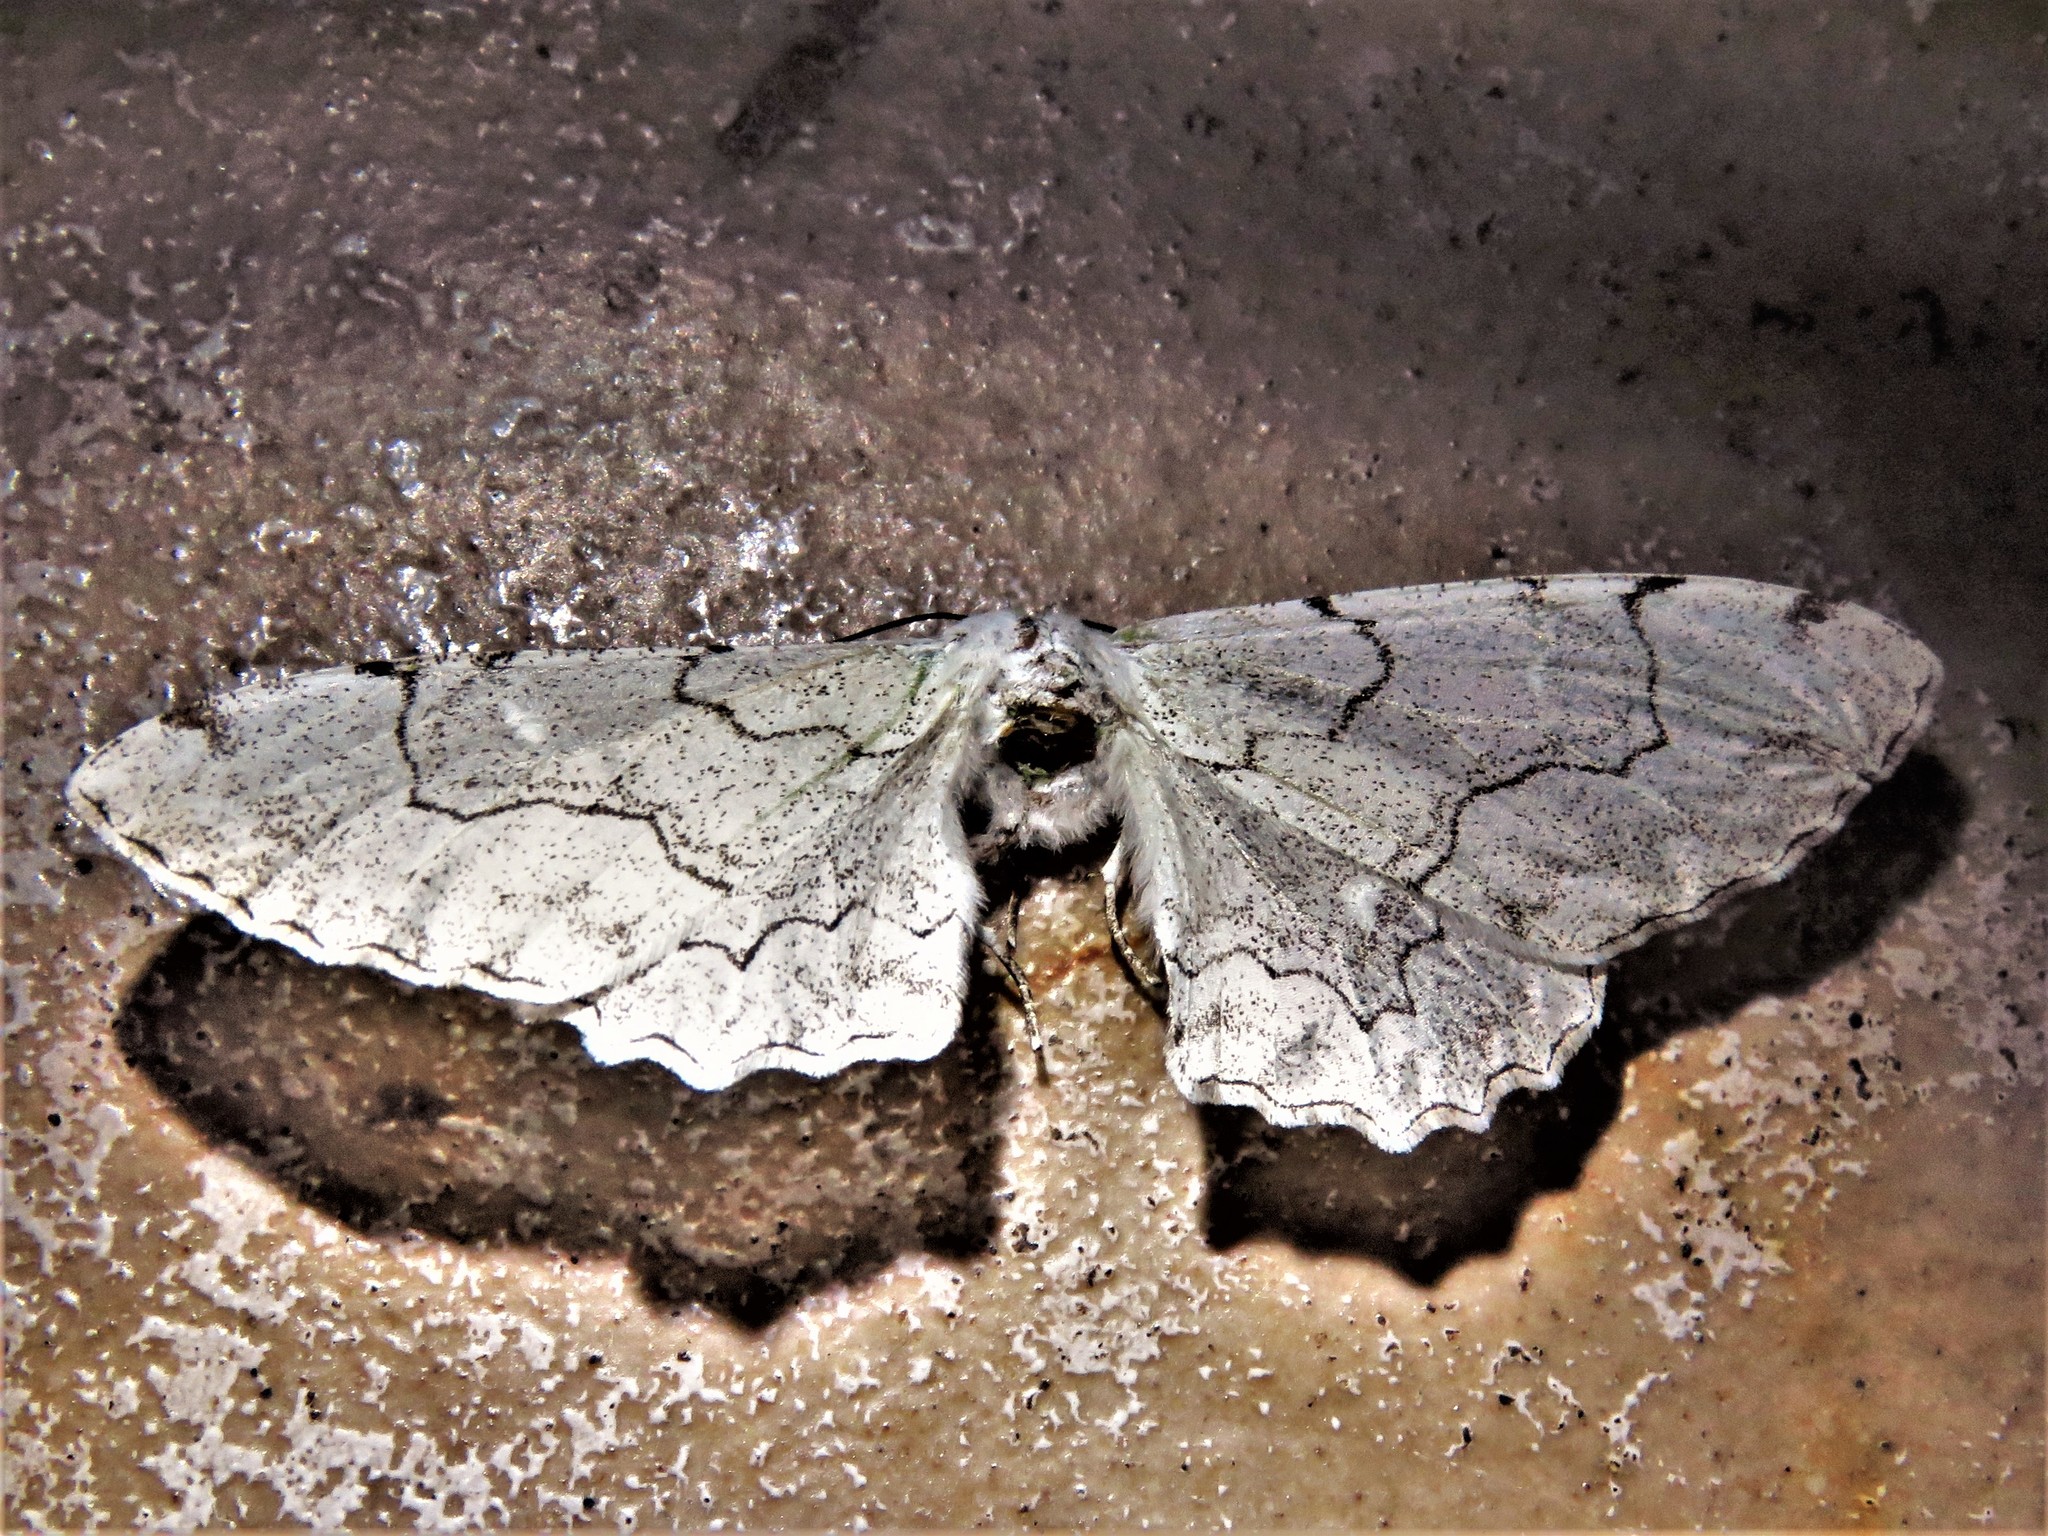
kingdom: Animalia
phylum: Arthropoda
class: Insecta
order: Lepidoptera
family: Geometridae
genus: Thyrinteina
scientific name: Thyrinteina arnobia
